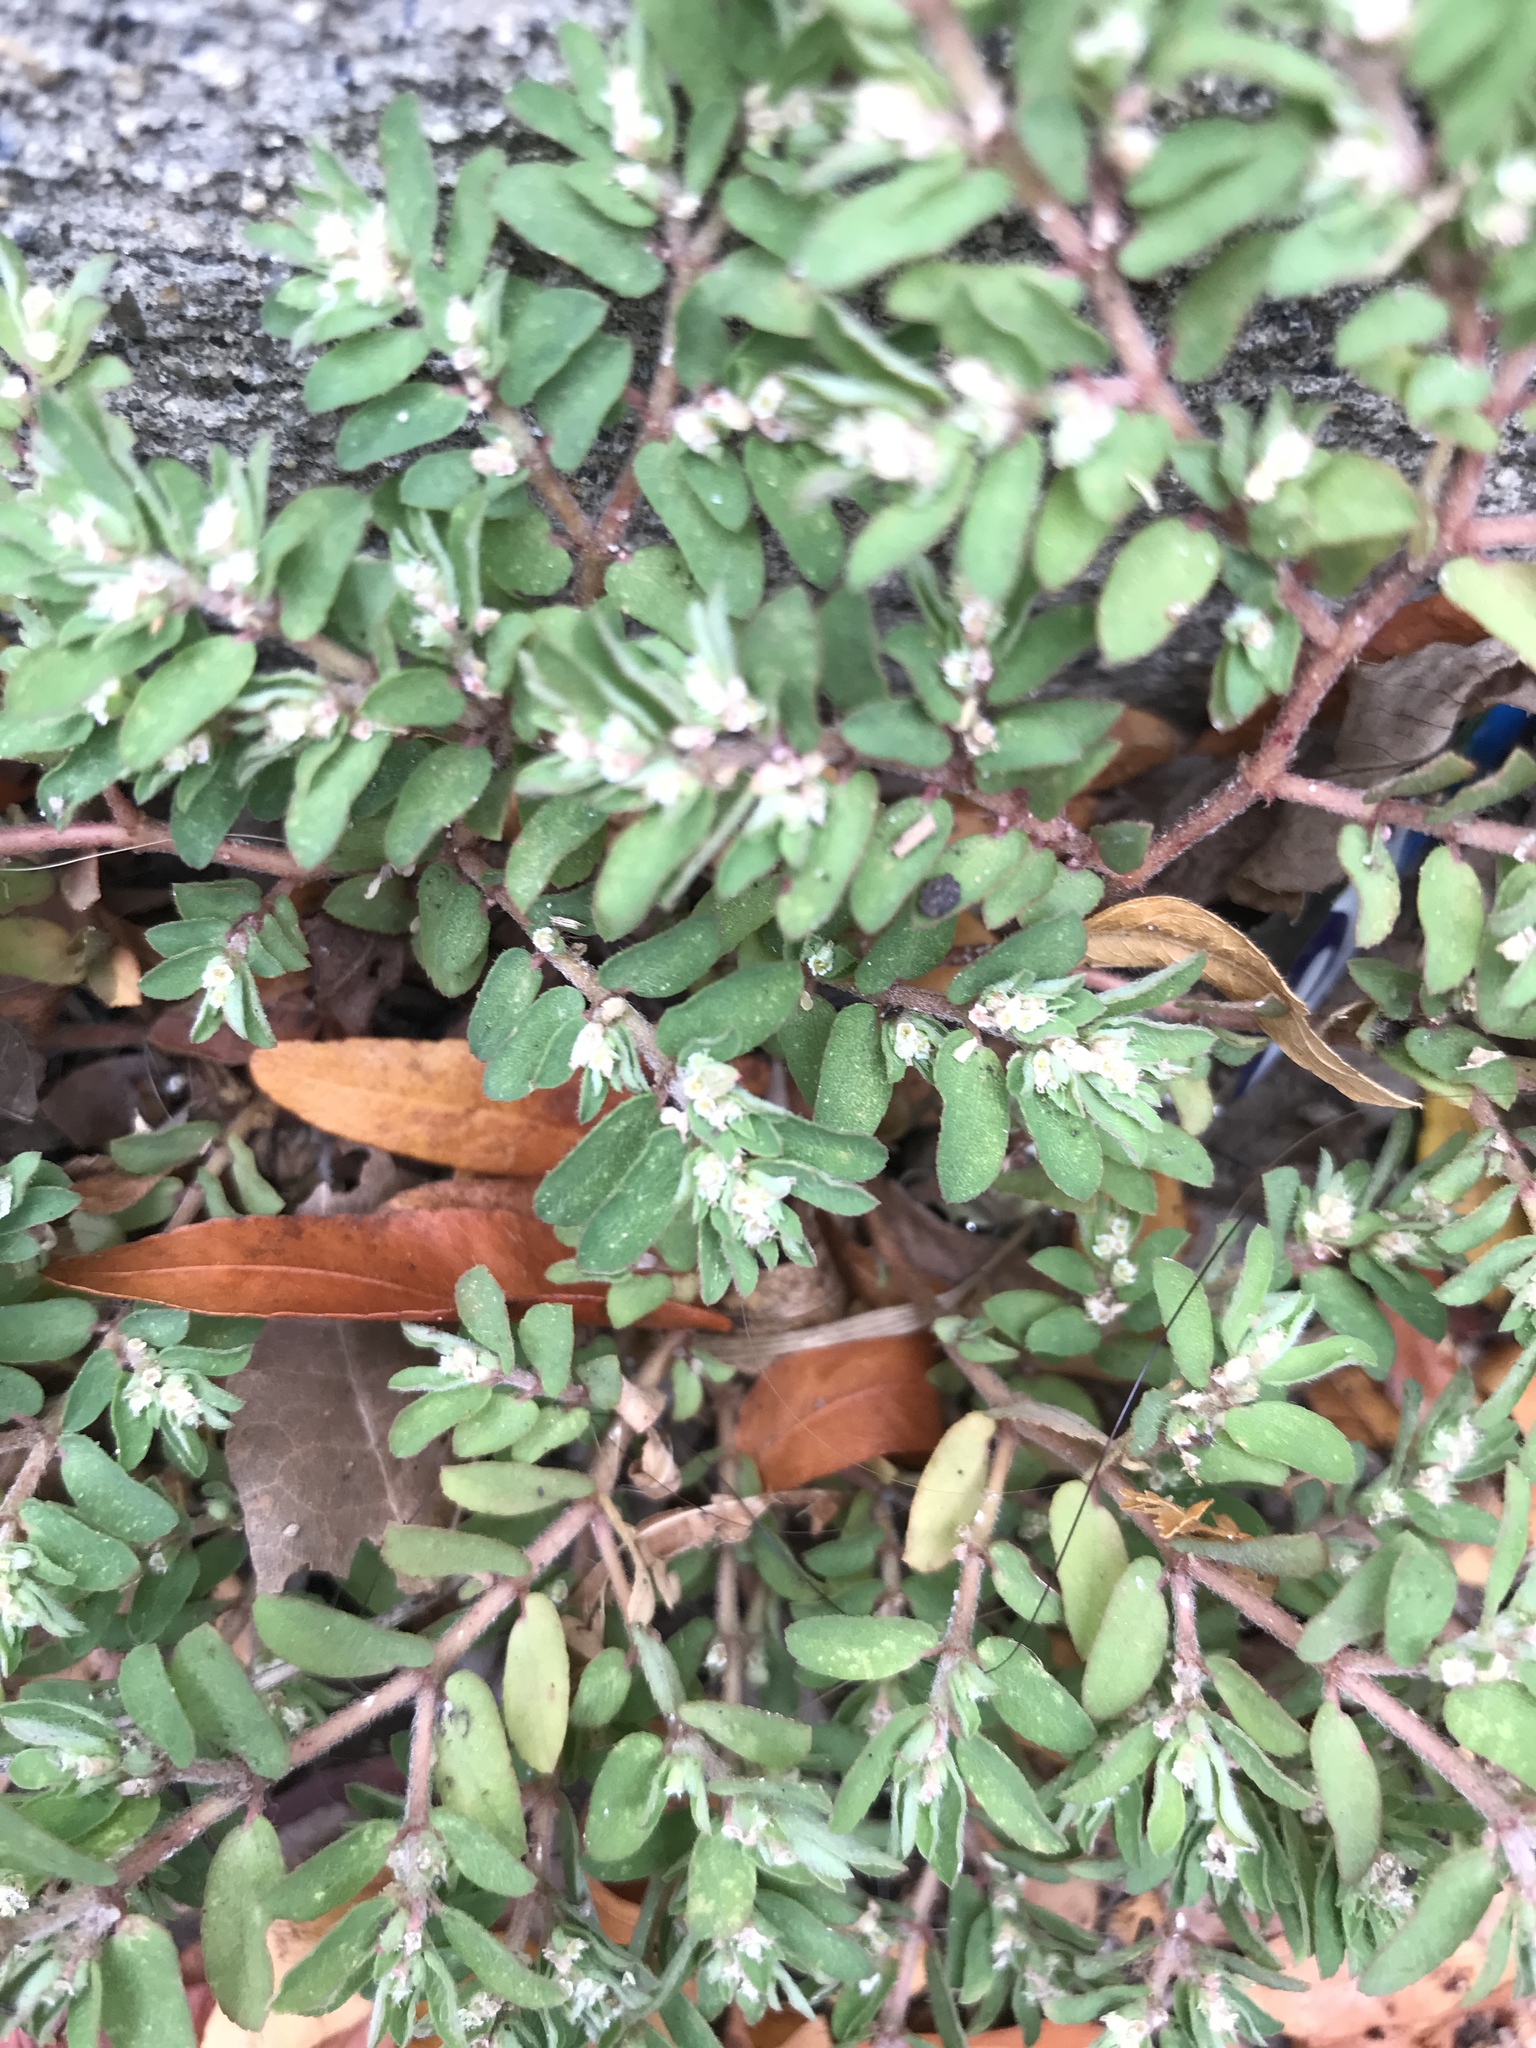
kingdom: Plantae
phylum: Tracheophyta
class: Magnoliopsida
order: Malpighiales
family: Euphorbiaceae
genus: Euphorbia
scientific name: Euphorbia maculata
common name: Spotted spurge
